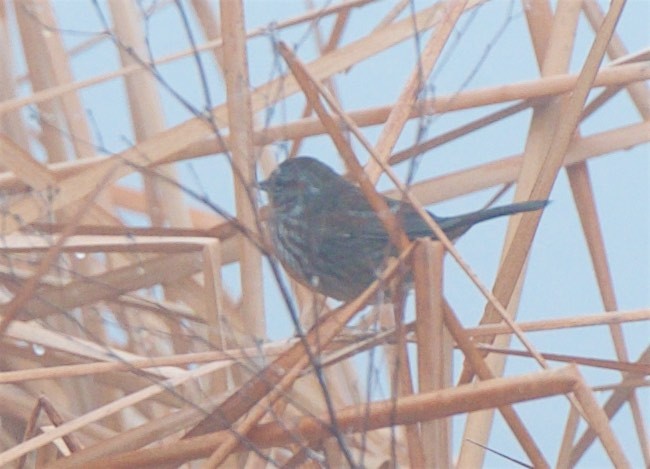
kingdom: Animalia
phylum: Chordata
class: Aves
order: Passeriformes
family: Passerellidae
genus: Melospiza
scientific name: Melospiza melodia
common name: Song sparrow
